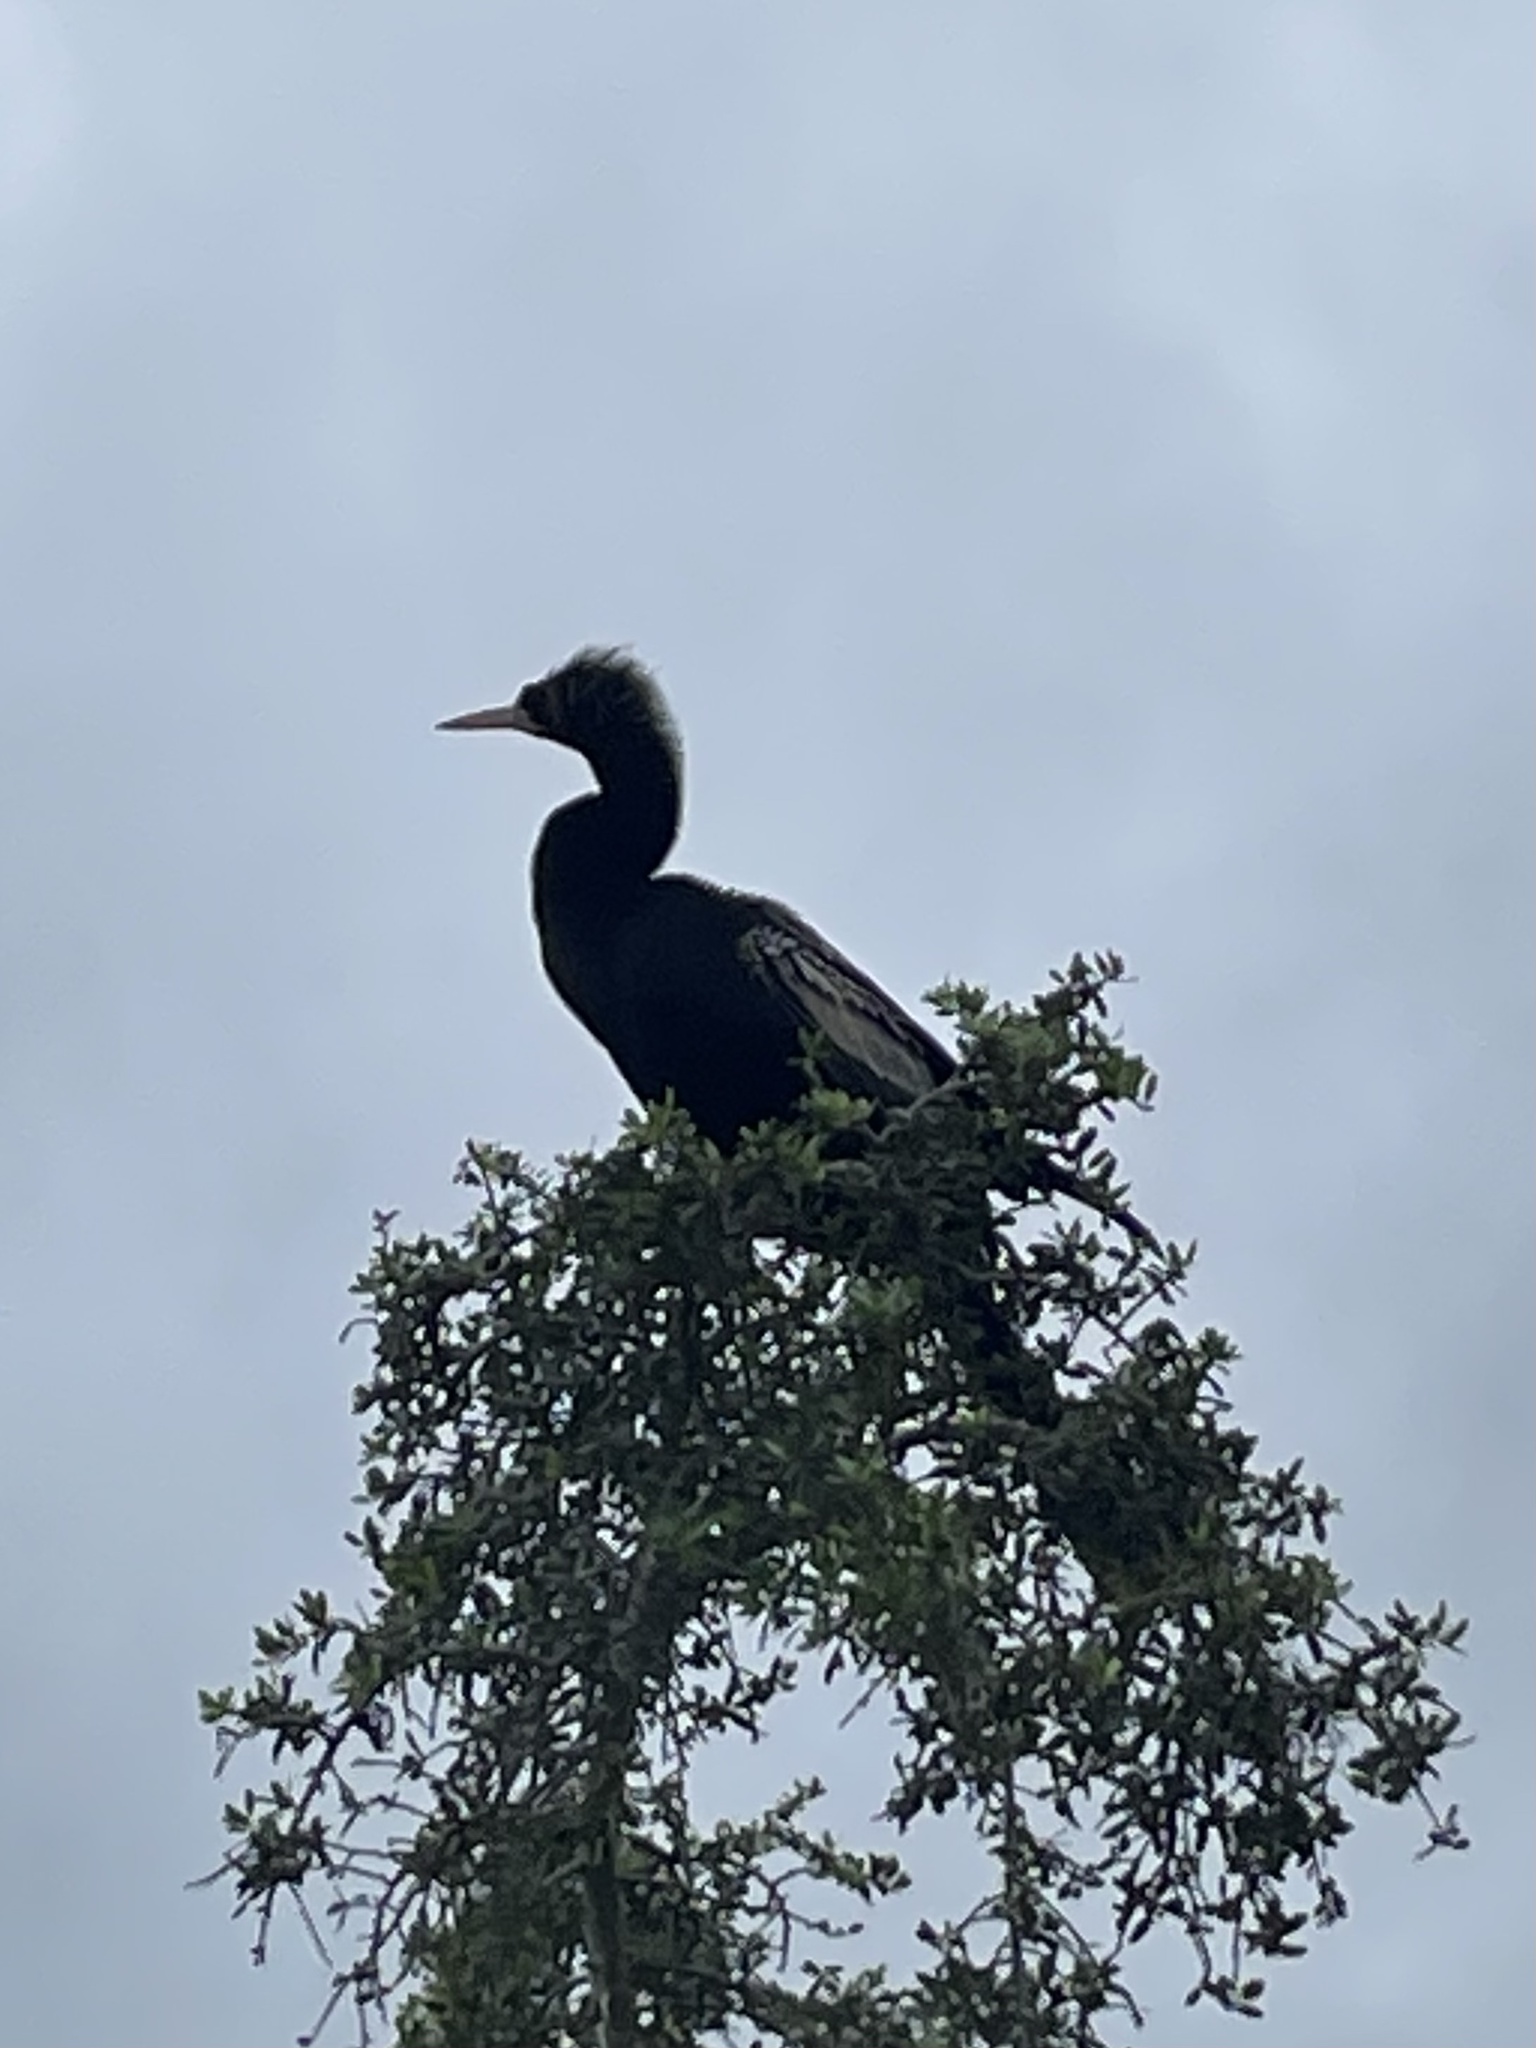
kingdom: Animalia
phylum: Chordata
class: Aves
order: Suliformes
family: Anhingidae
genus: Anhinga
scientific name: Anhinga anhinga
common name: Anhinga
